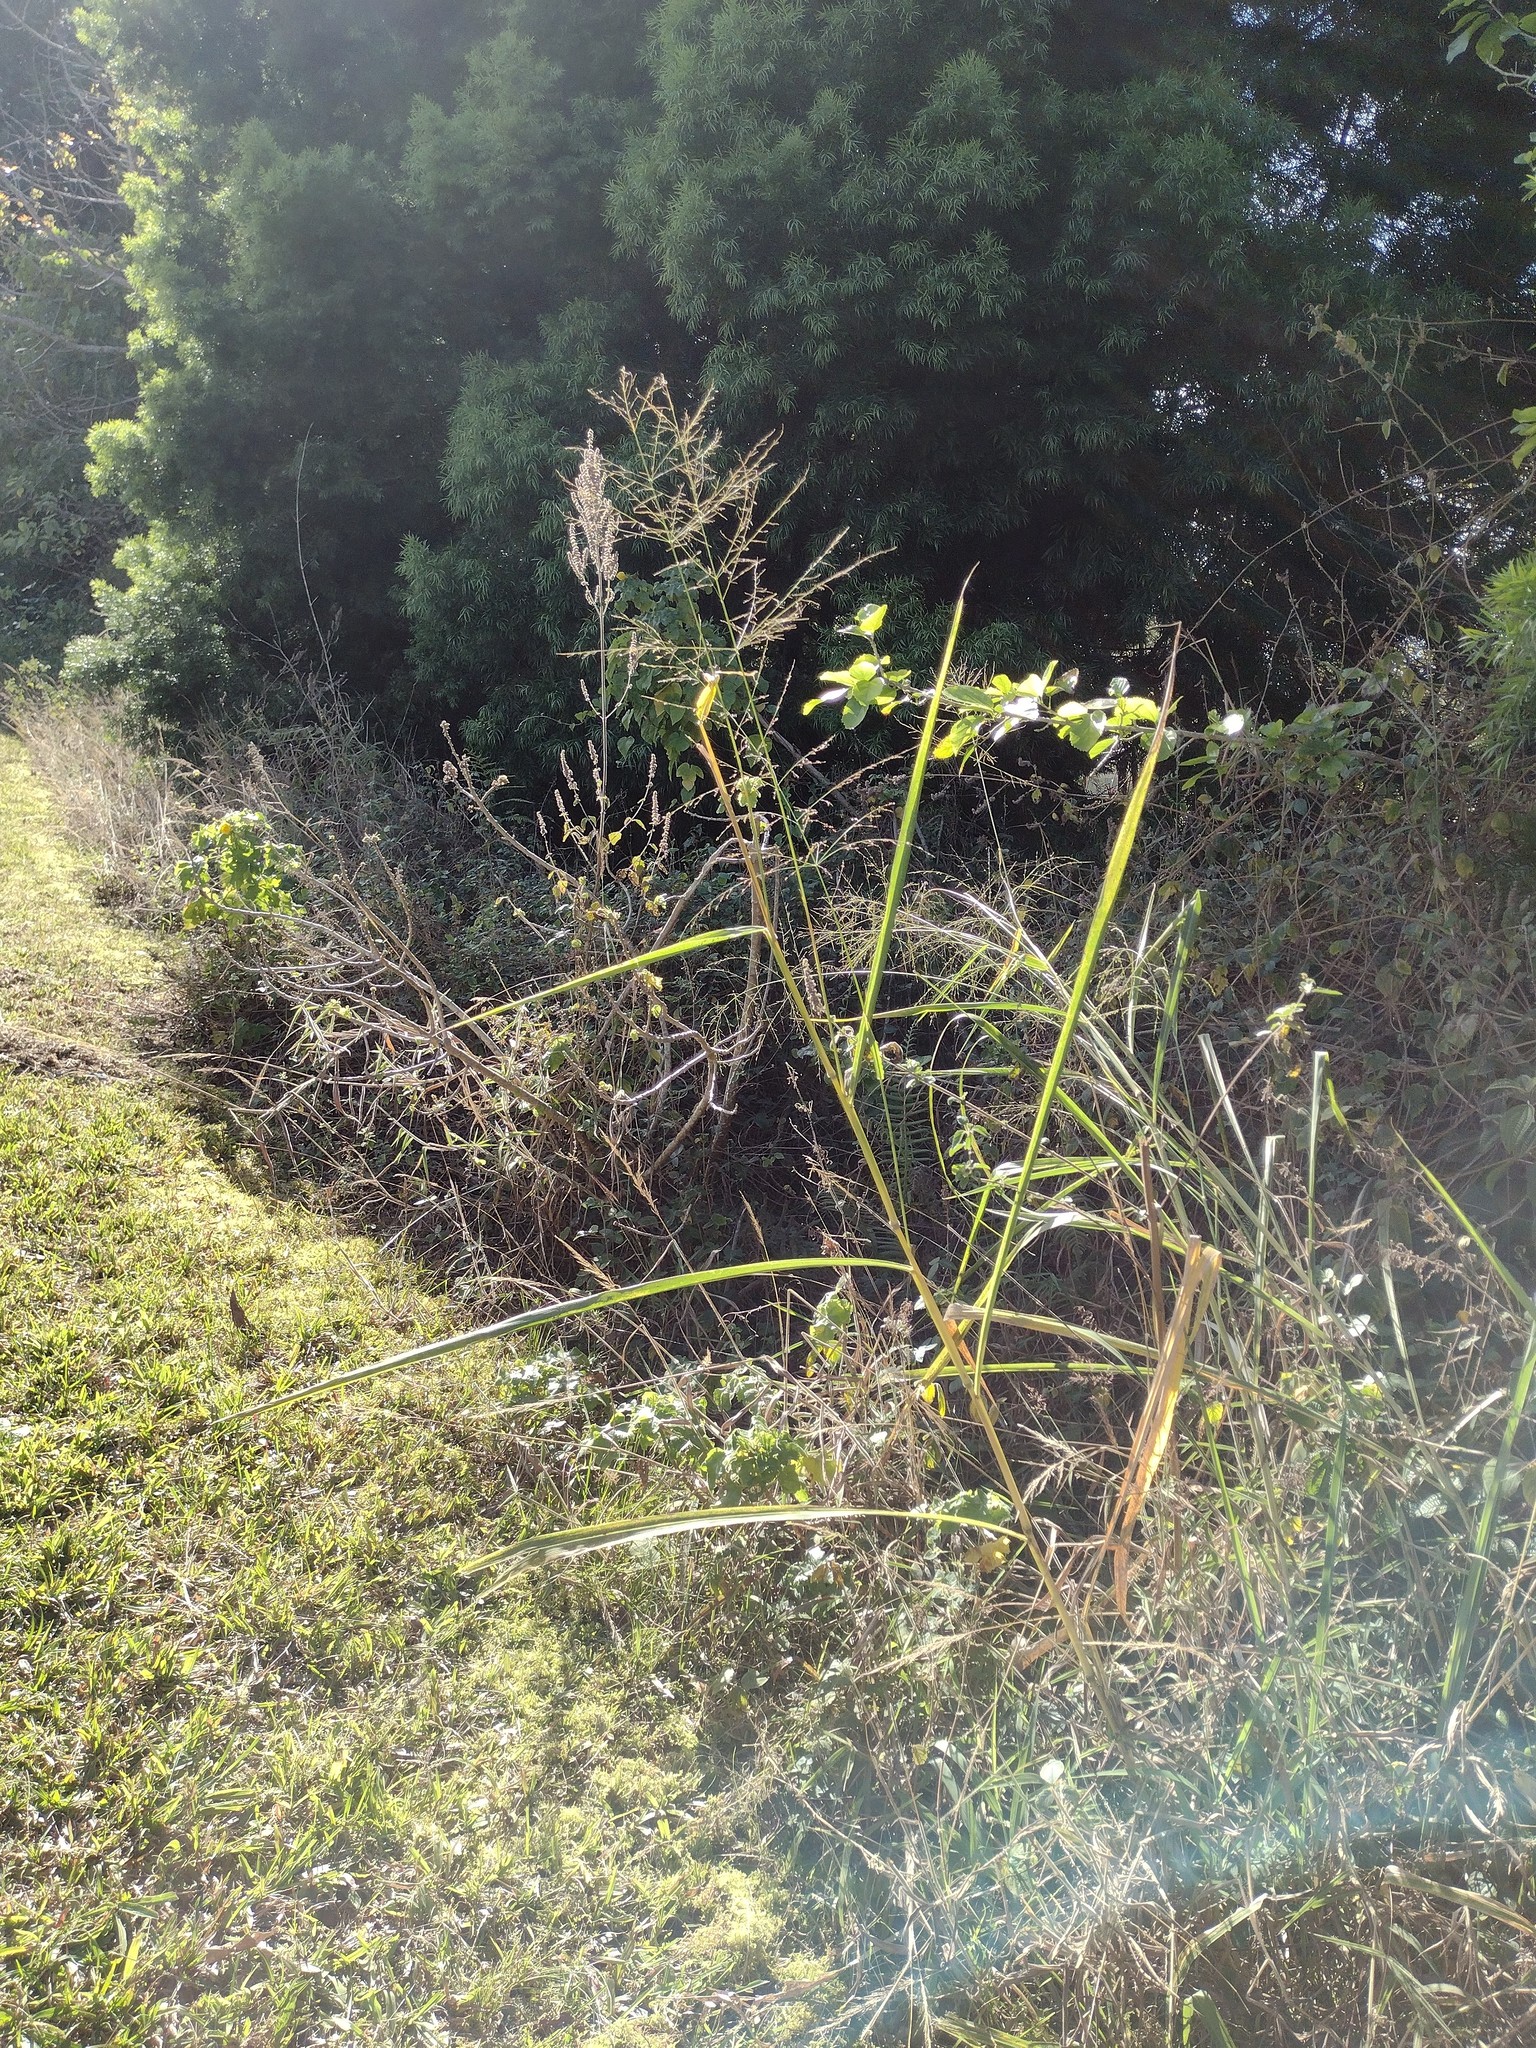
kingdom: Plantae
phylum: Tracheophyta
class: Liliopsida
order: Poales
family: Poaceae
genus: Megathyrsus
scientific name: Megathyrsus maximus
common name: Guineagrass
